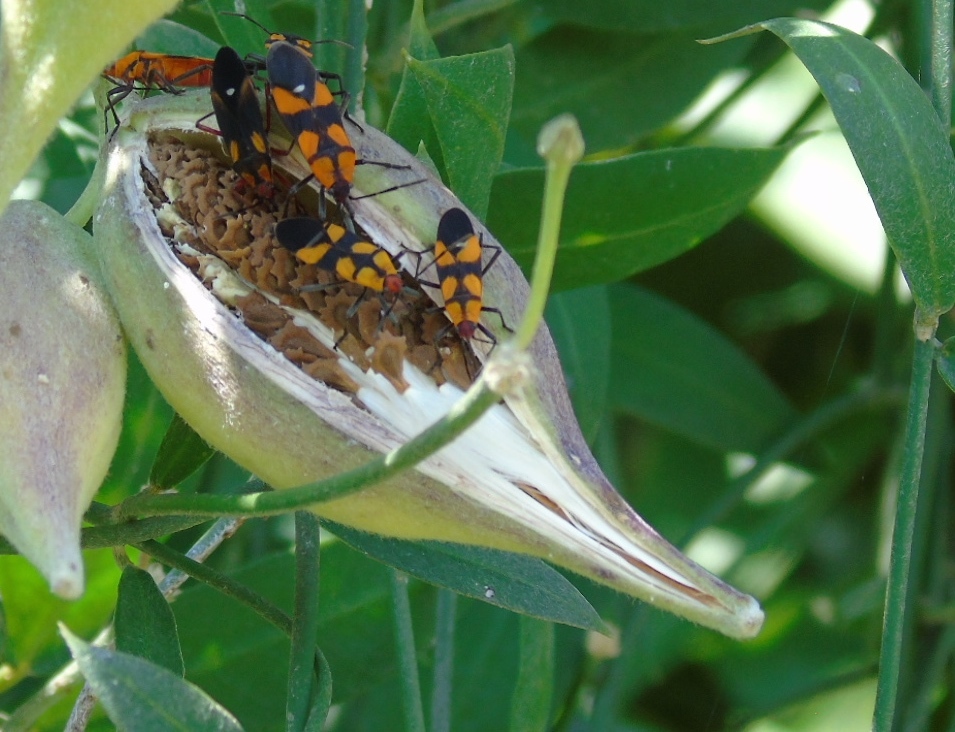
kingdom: Animalia
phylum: Arthropoda
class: Insecta
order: Hemiptera
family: Lygaeidae
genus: Oncopeltus
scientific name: Oncopeltus
